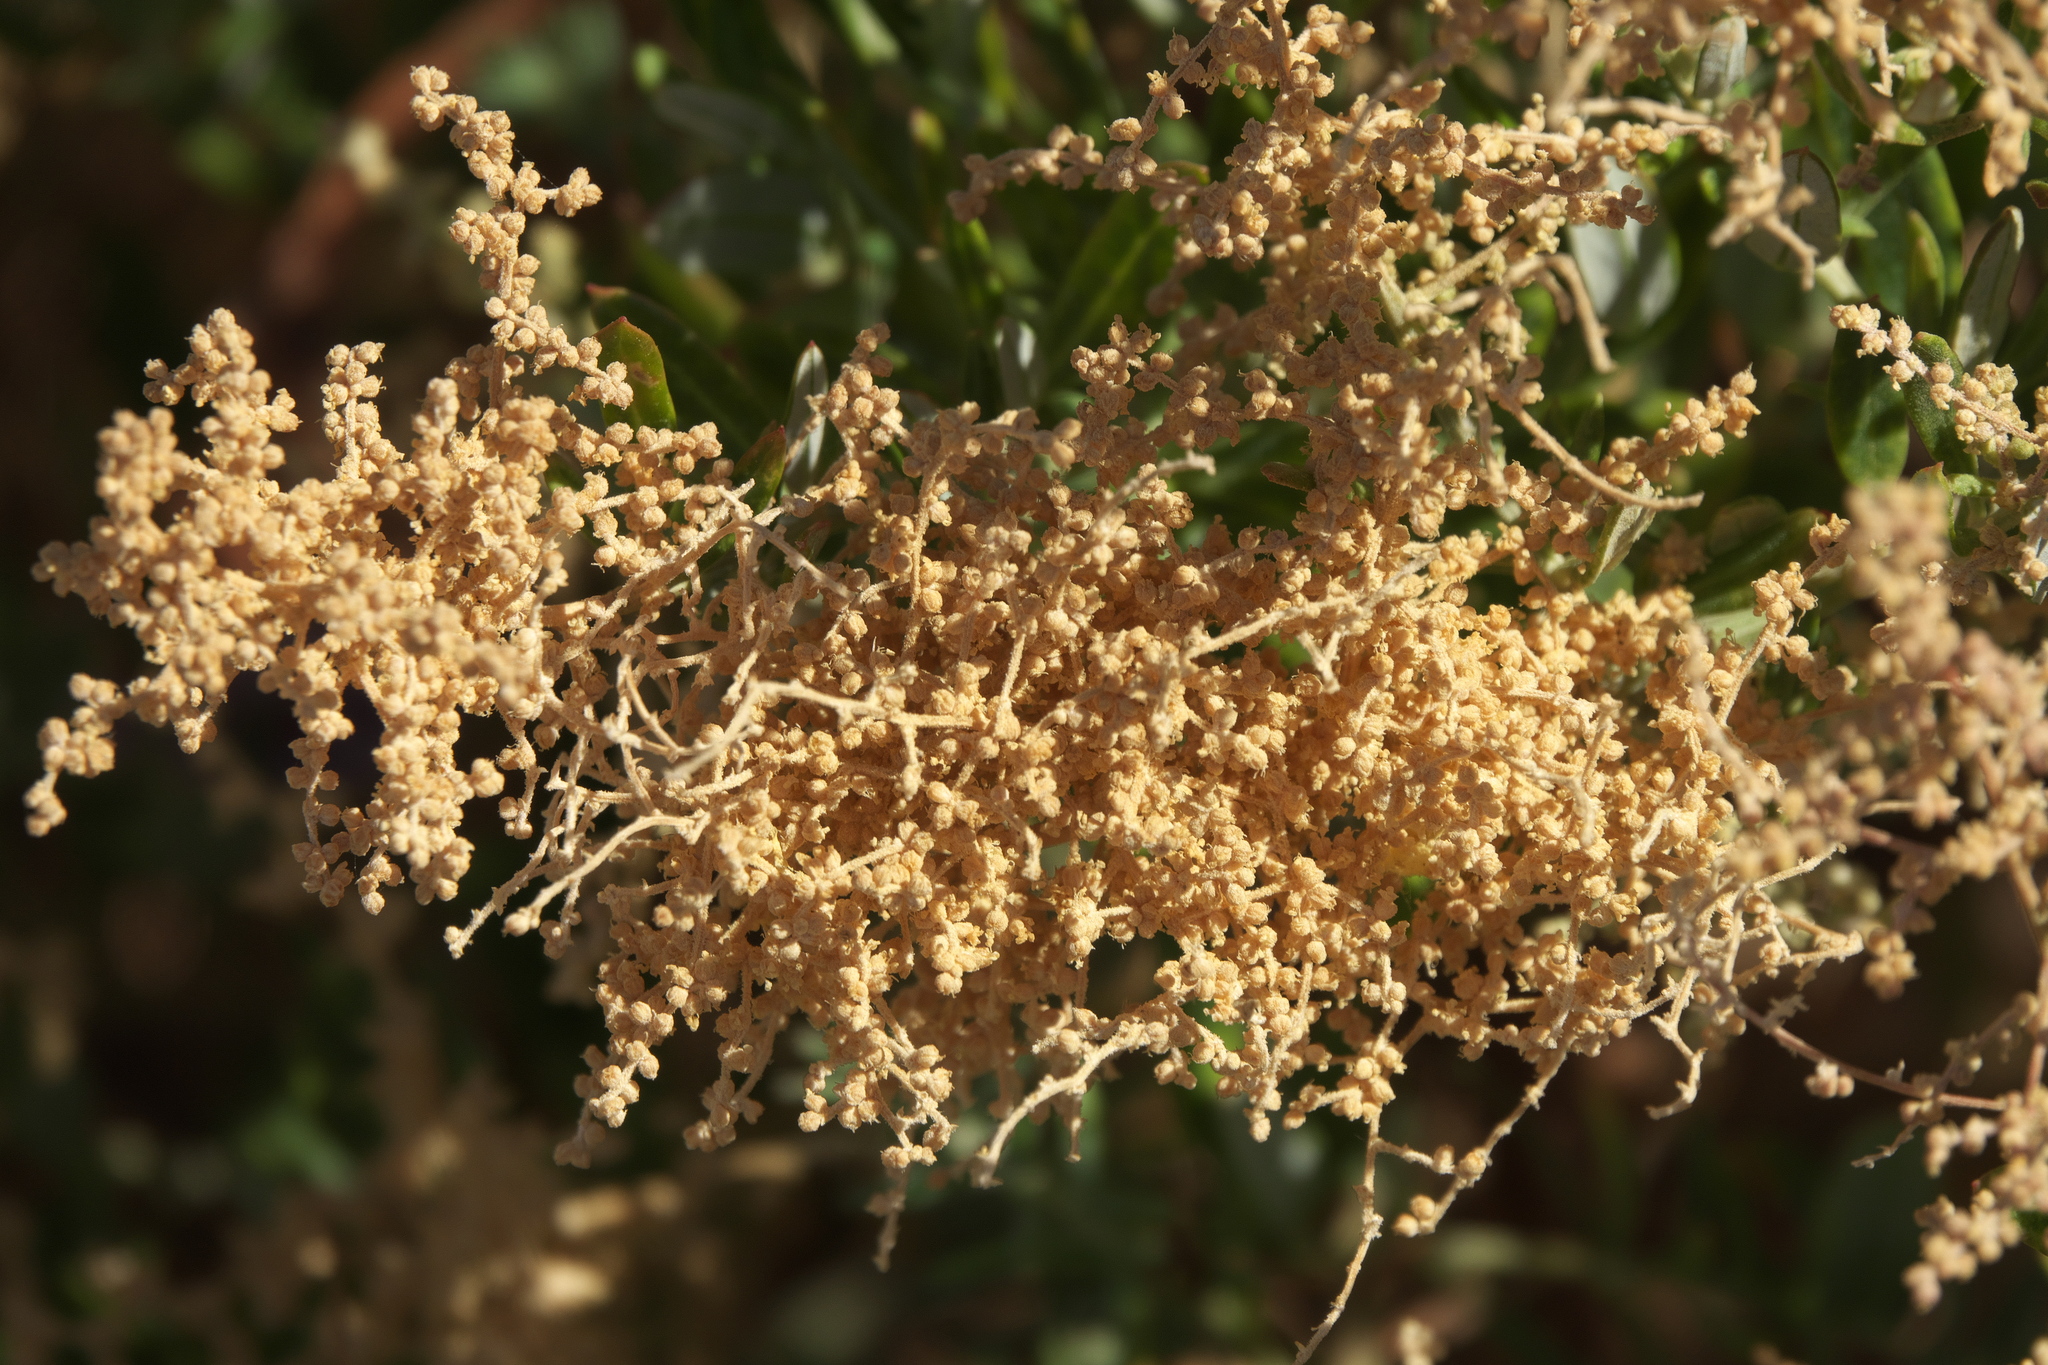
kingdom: Plantae
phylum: Tracheophyta
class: Magnoliopsida
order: Caryophyllales
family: Amaranthaceae
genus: Chenopodium
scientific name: Chenopodium baccatum
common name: Coastal-saltbush
